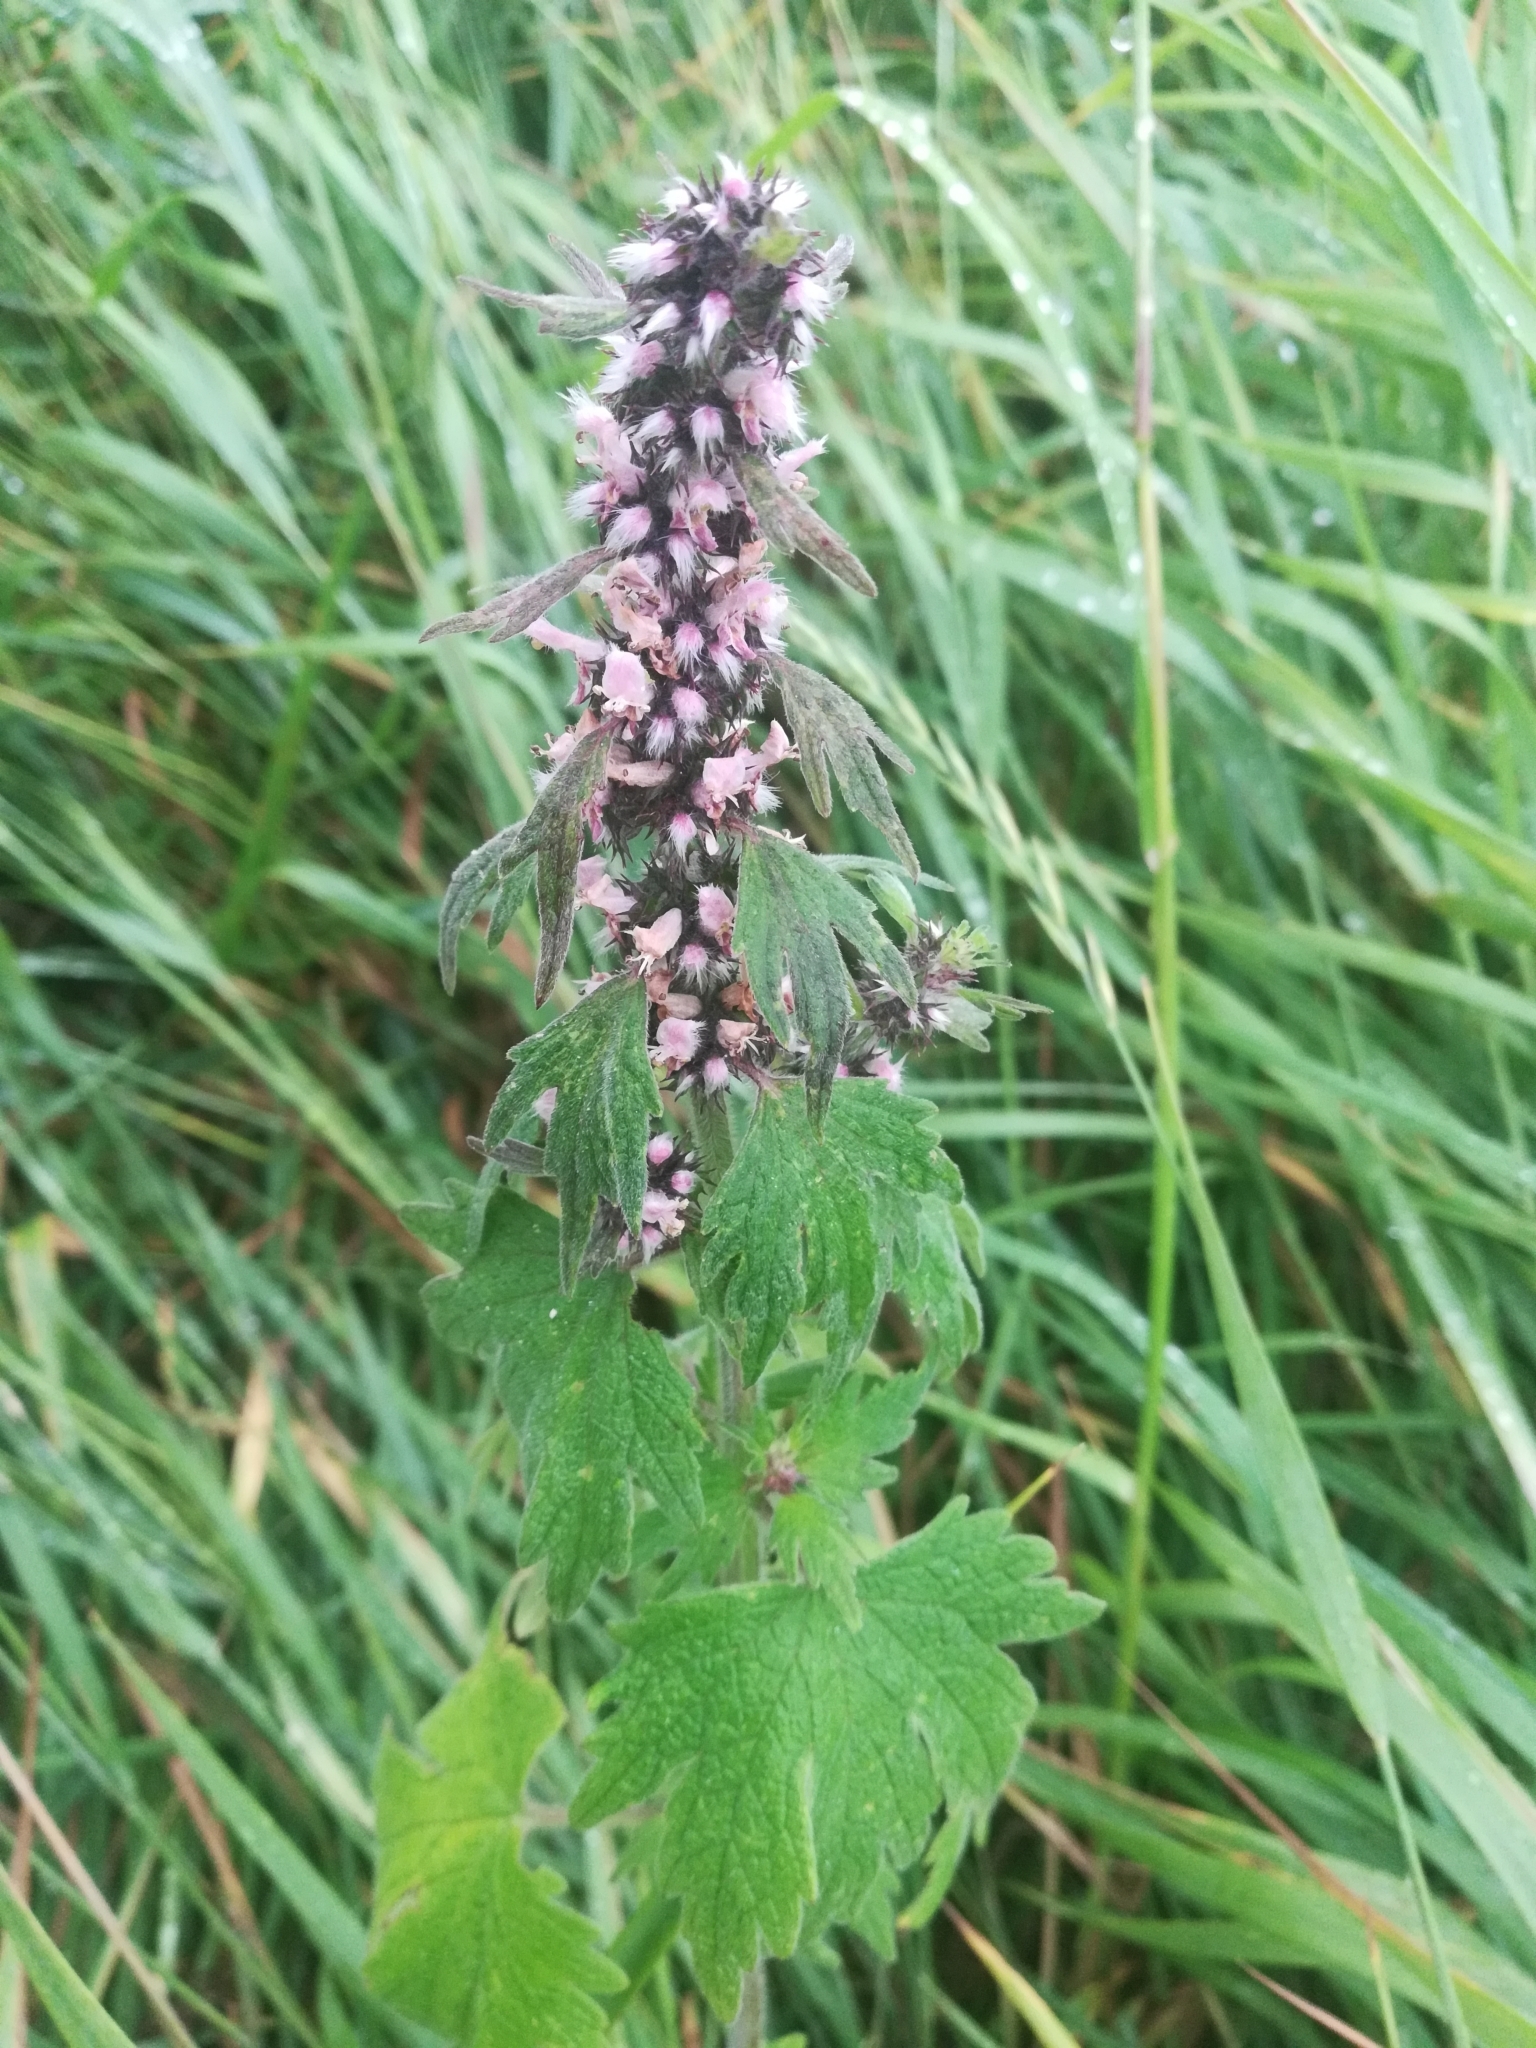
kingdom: Plantae
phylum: Tracheophyta
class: Magnoliopsida
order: Lamiales
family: Lamiaceae
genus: Leonurus
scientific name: Leonurus quinquelobatus
